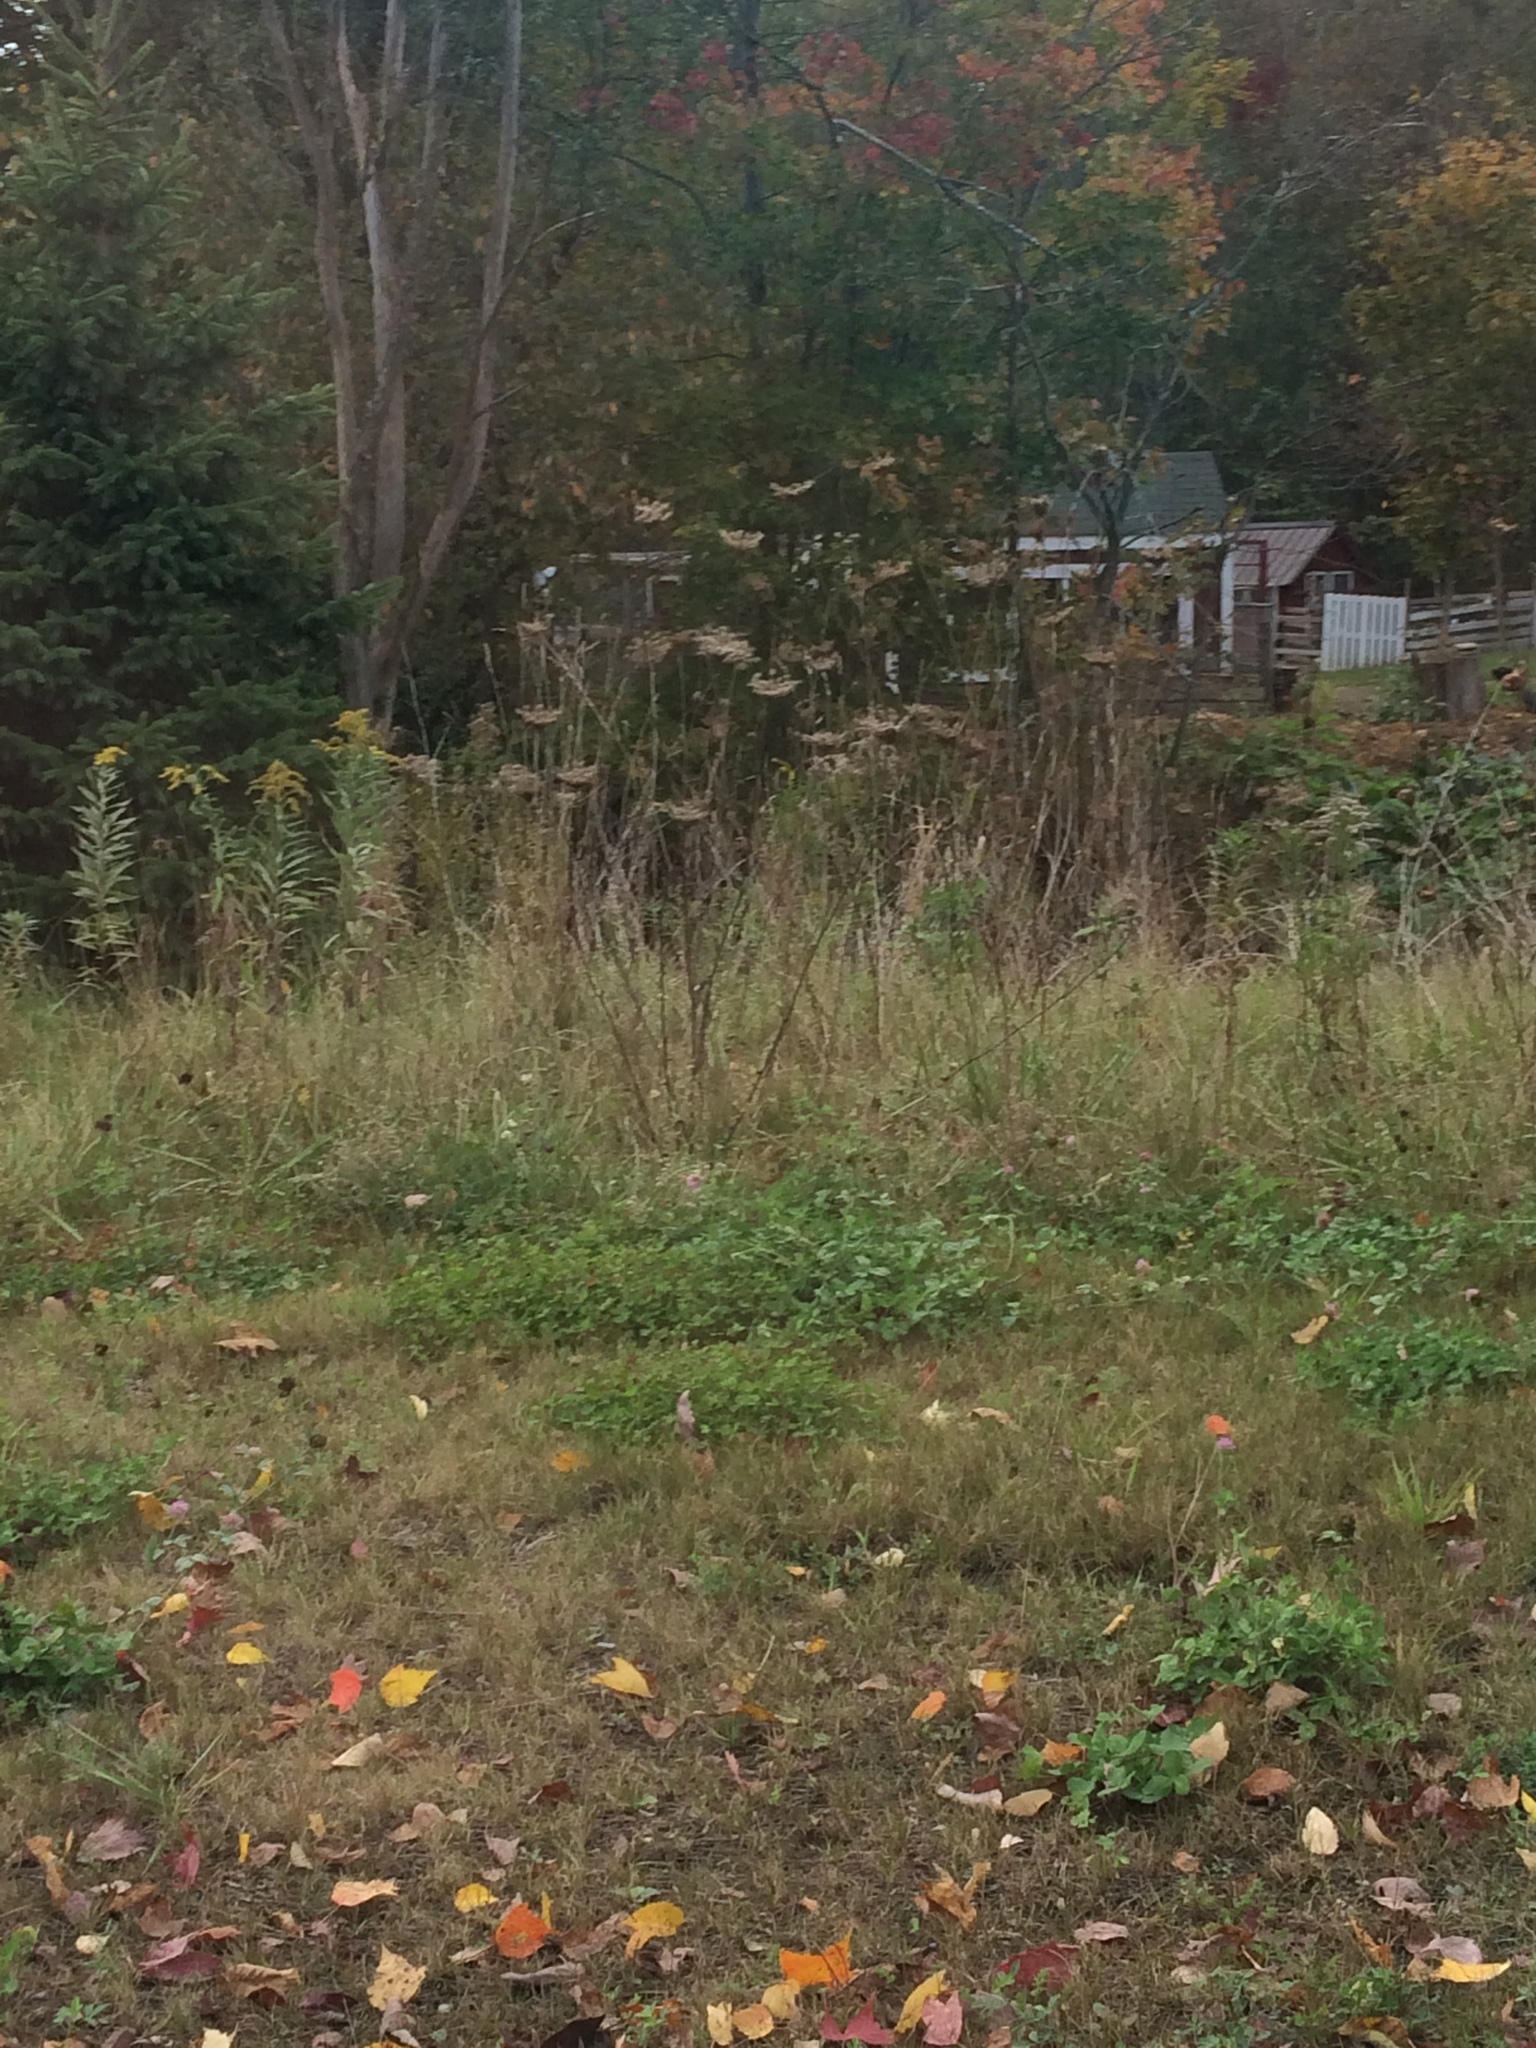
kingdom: Plantae
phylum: Tracheophyta
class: Magnoliopsida
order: Apiales
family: Apiaceae
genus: Daucus
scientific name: Daucus carota
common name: Wild carrot
